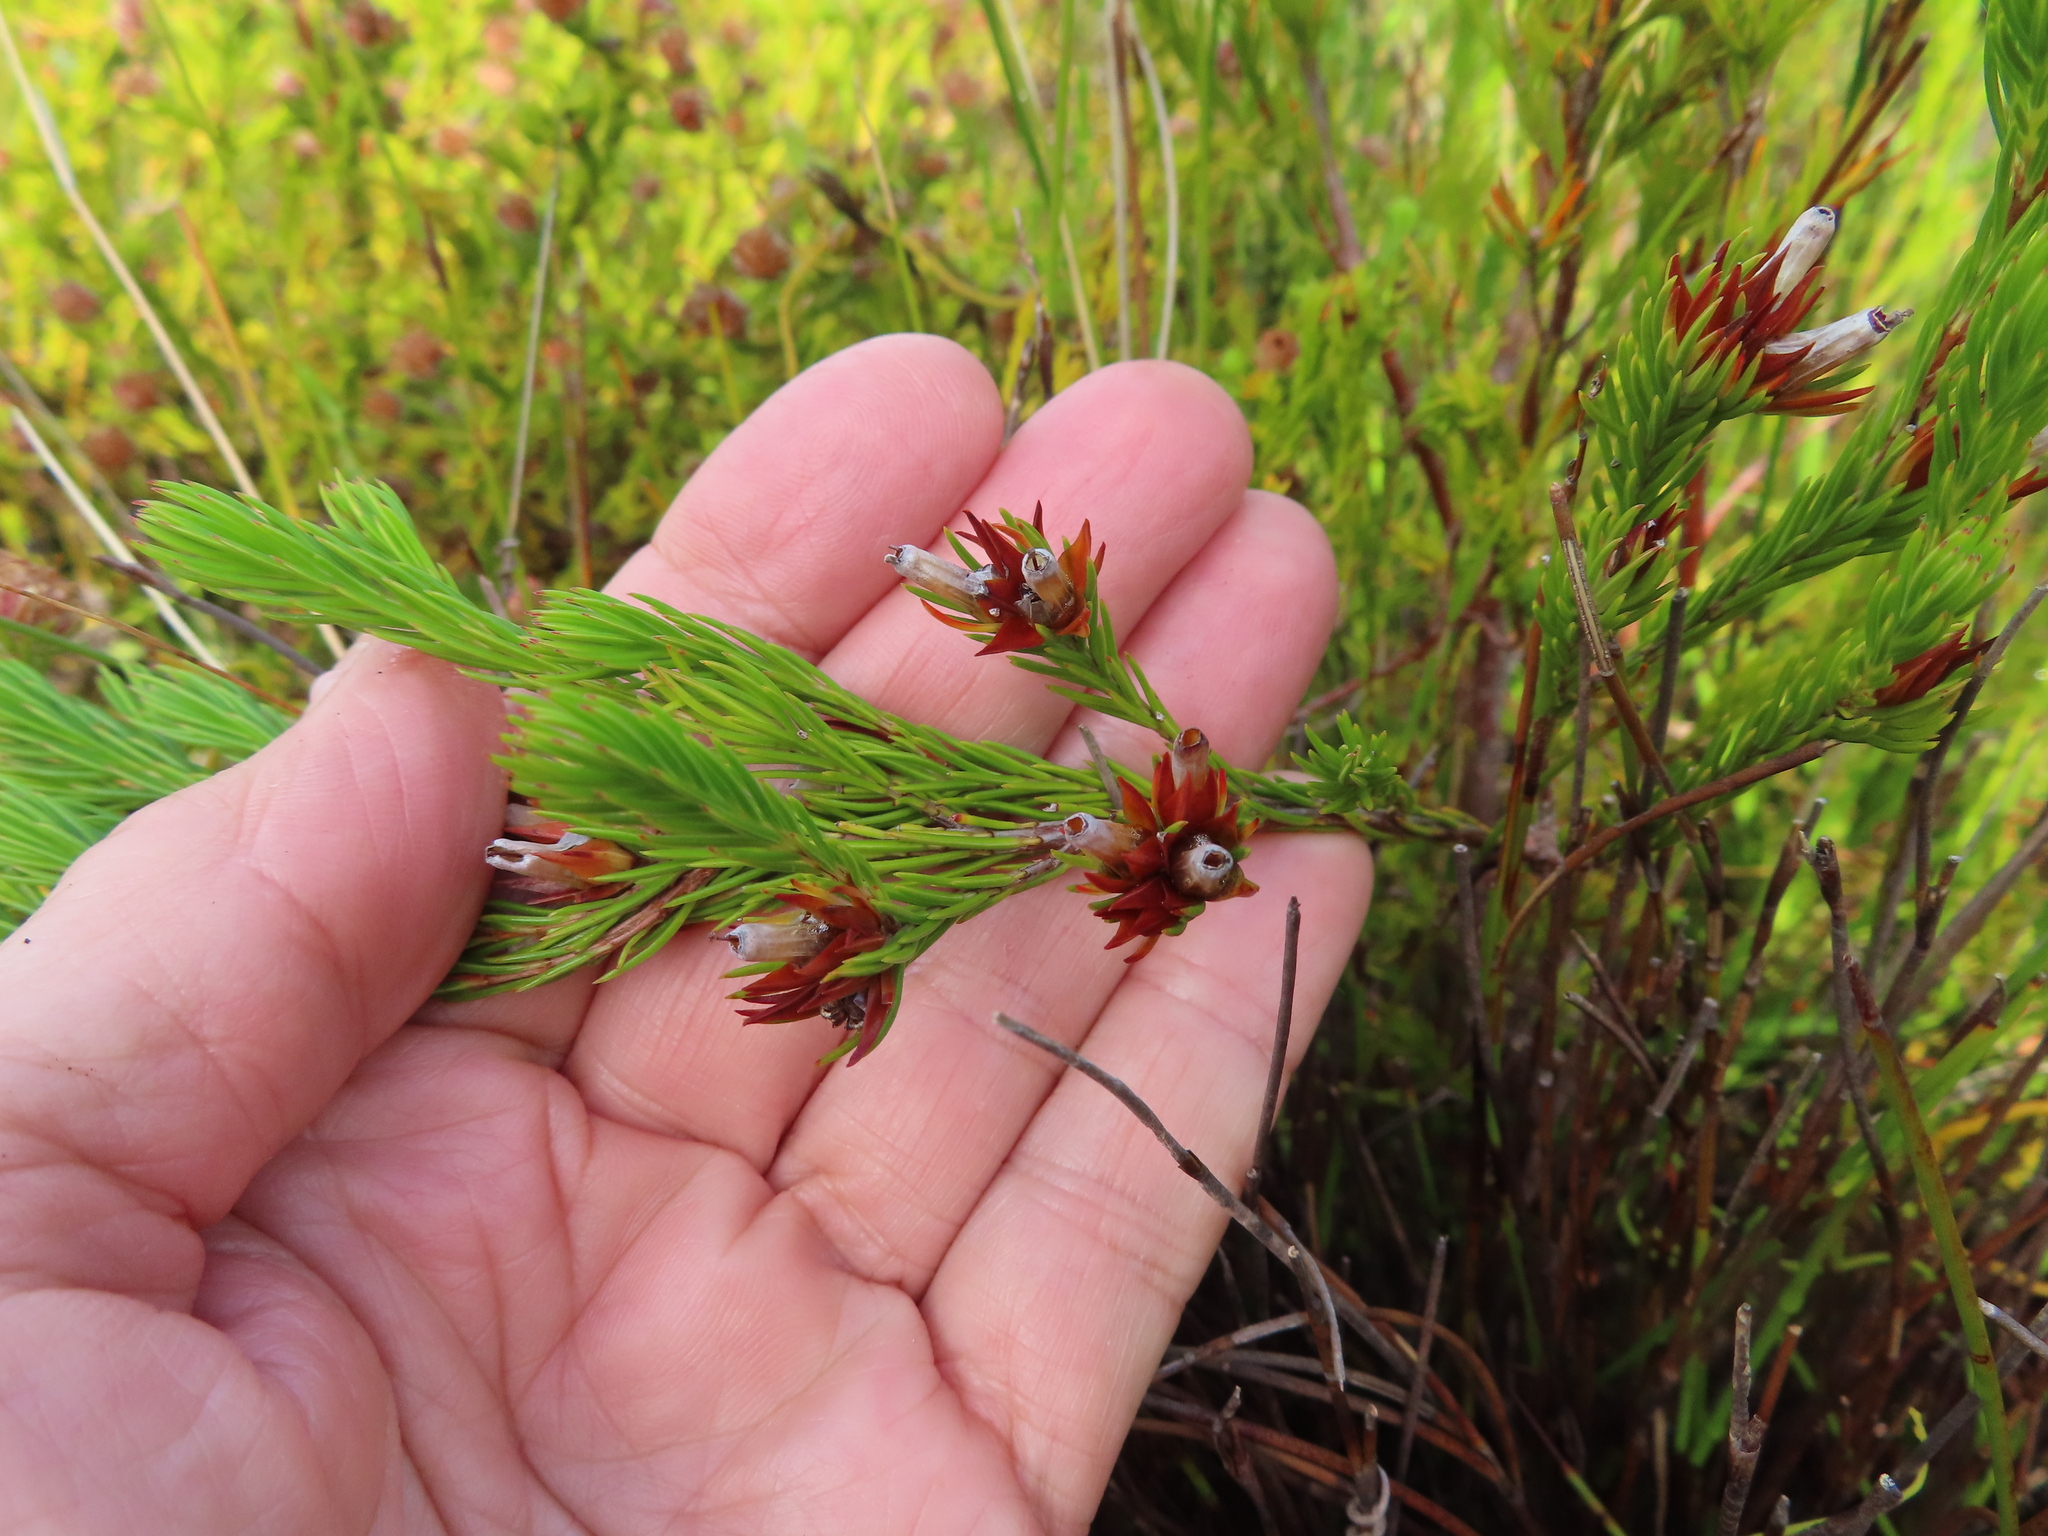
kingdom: Plantae
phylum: Tracheophyta
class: Magnoliopsida
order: Oxalidales
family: Oxalidaceae
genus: Oxalis
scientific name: Oxalis commutata
